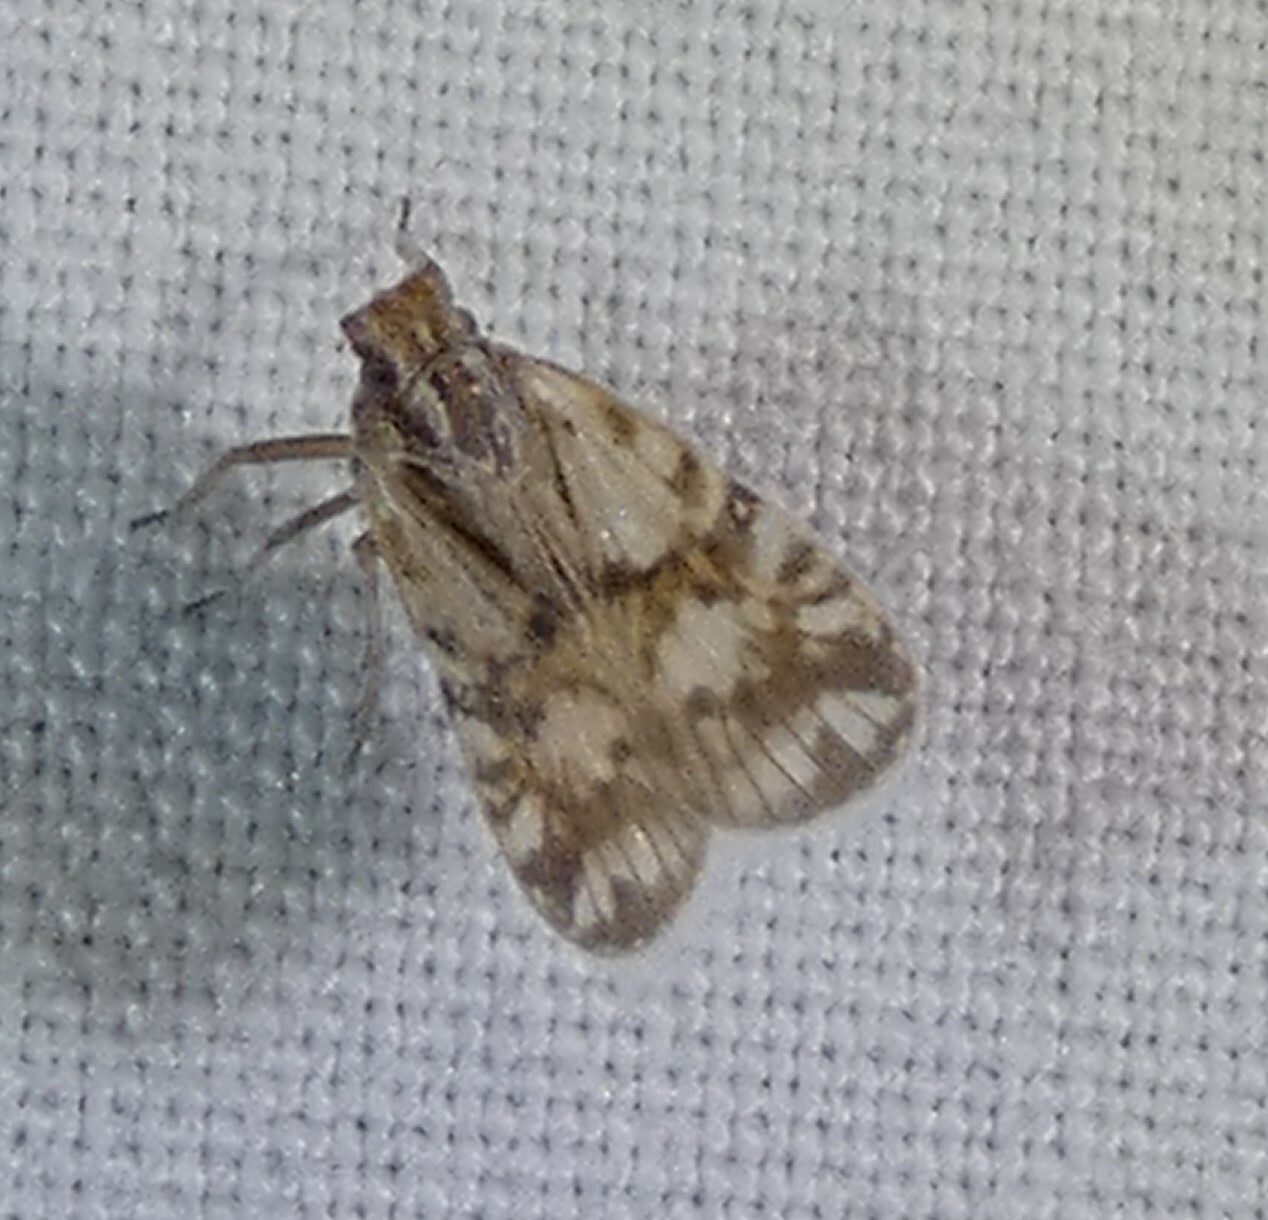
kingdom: Animalia
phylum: Arthropoda
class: Insecta
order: Hemiptera
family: Cixiidae
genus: Bothriocera
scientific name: Bothriocera maculata
